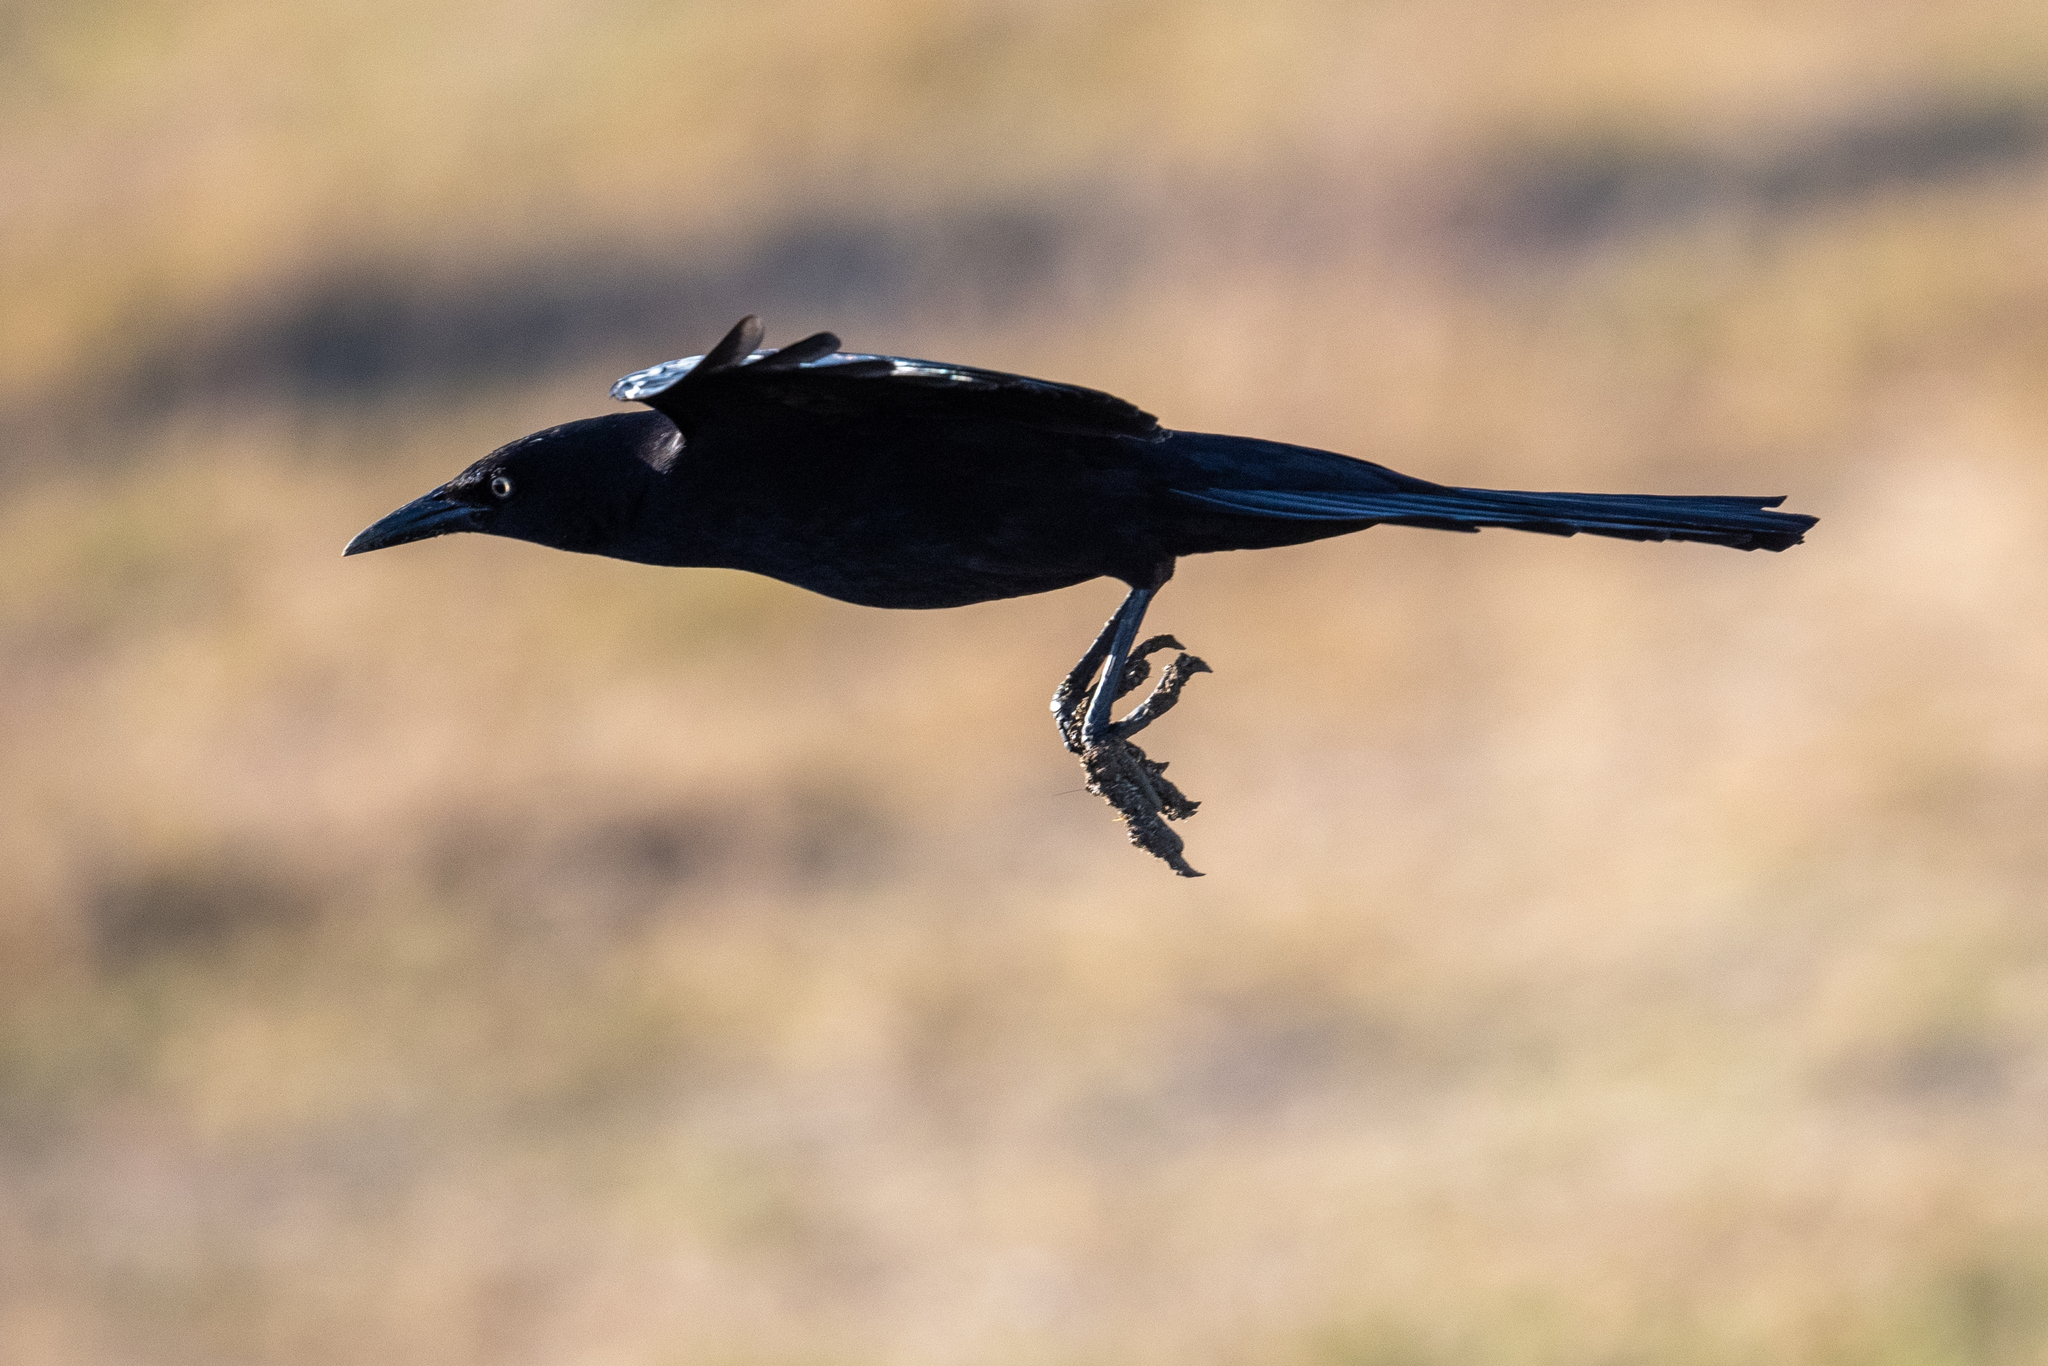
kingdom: Animalia
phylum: Chordata
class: Aves
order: Passeriformes
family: Icteridae
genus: Quiscalus
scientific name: Quiscalus mexicanus
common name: Great-tailed grackle
